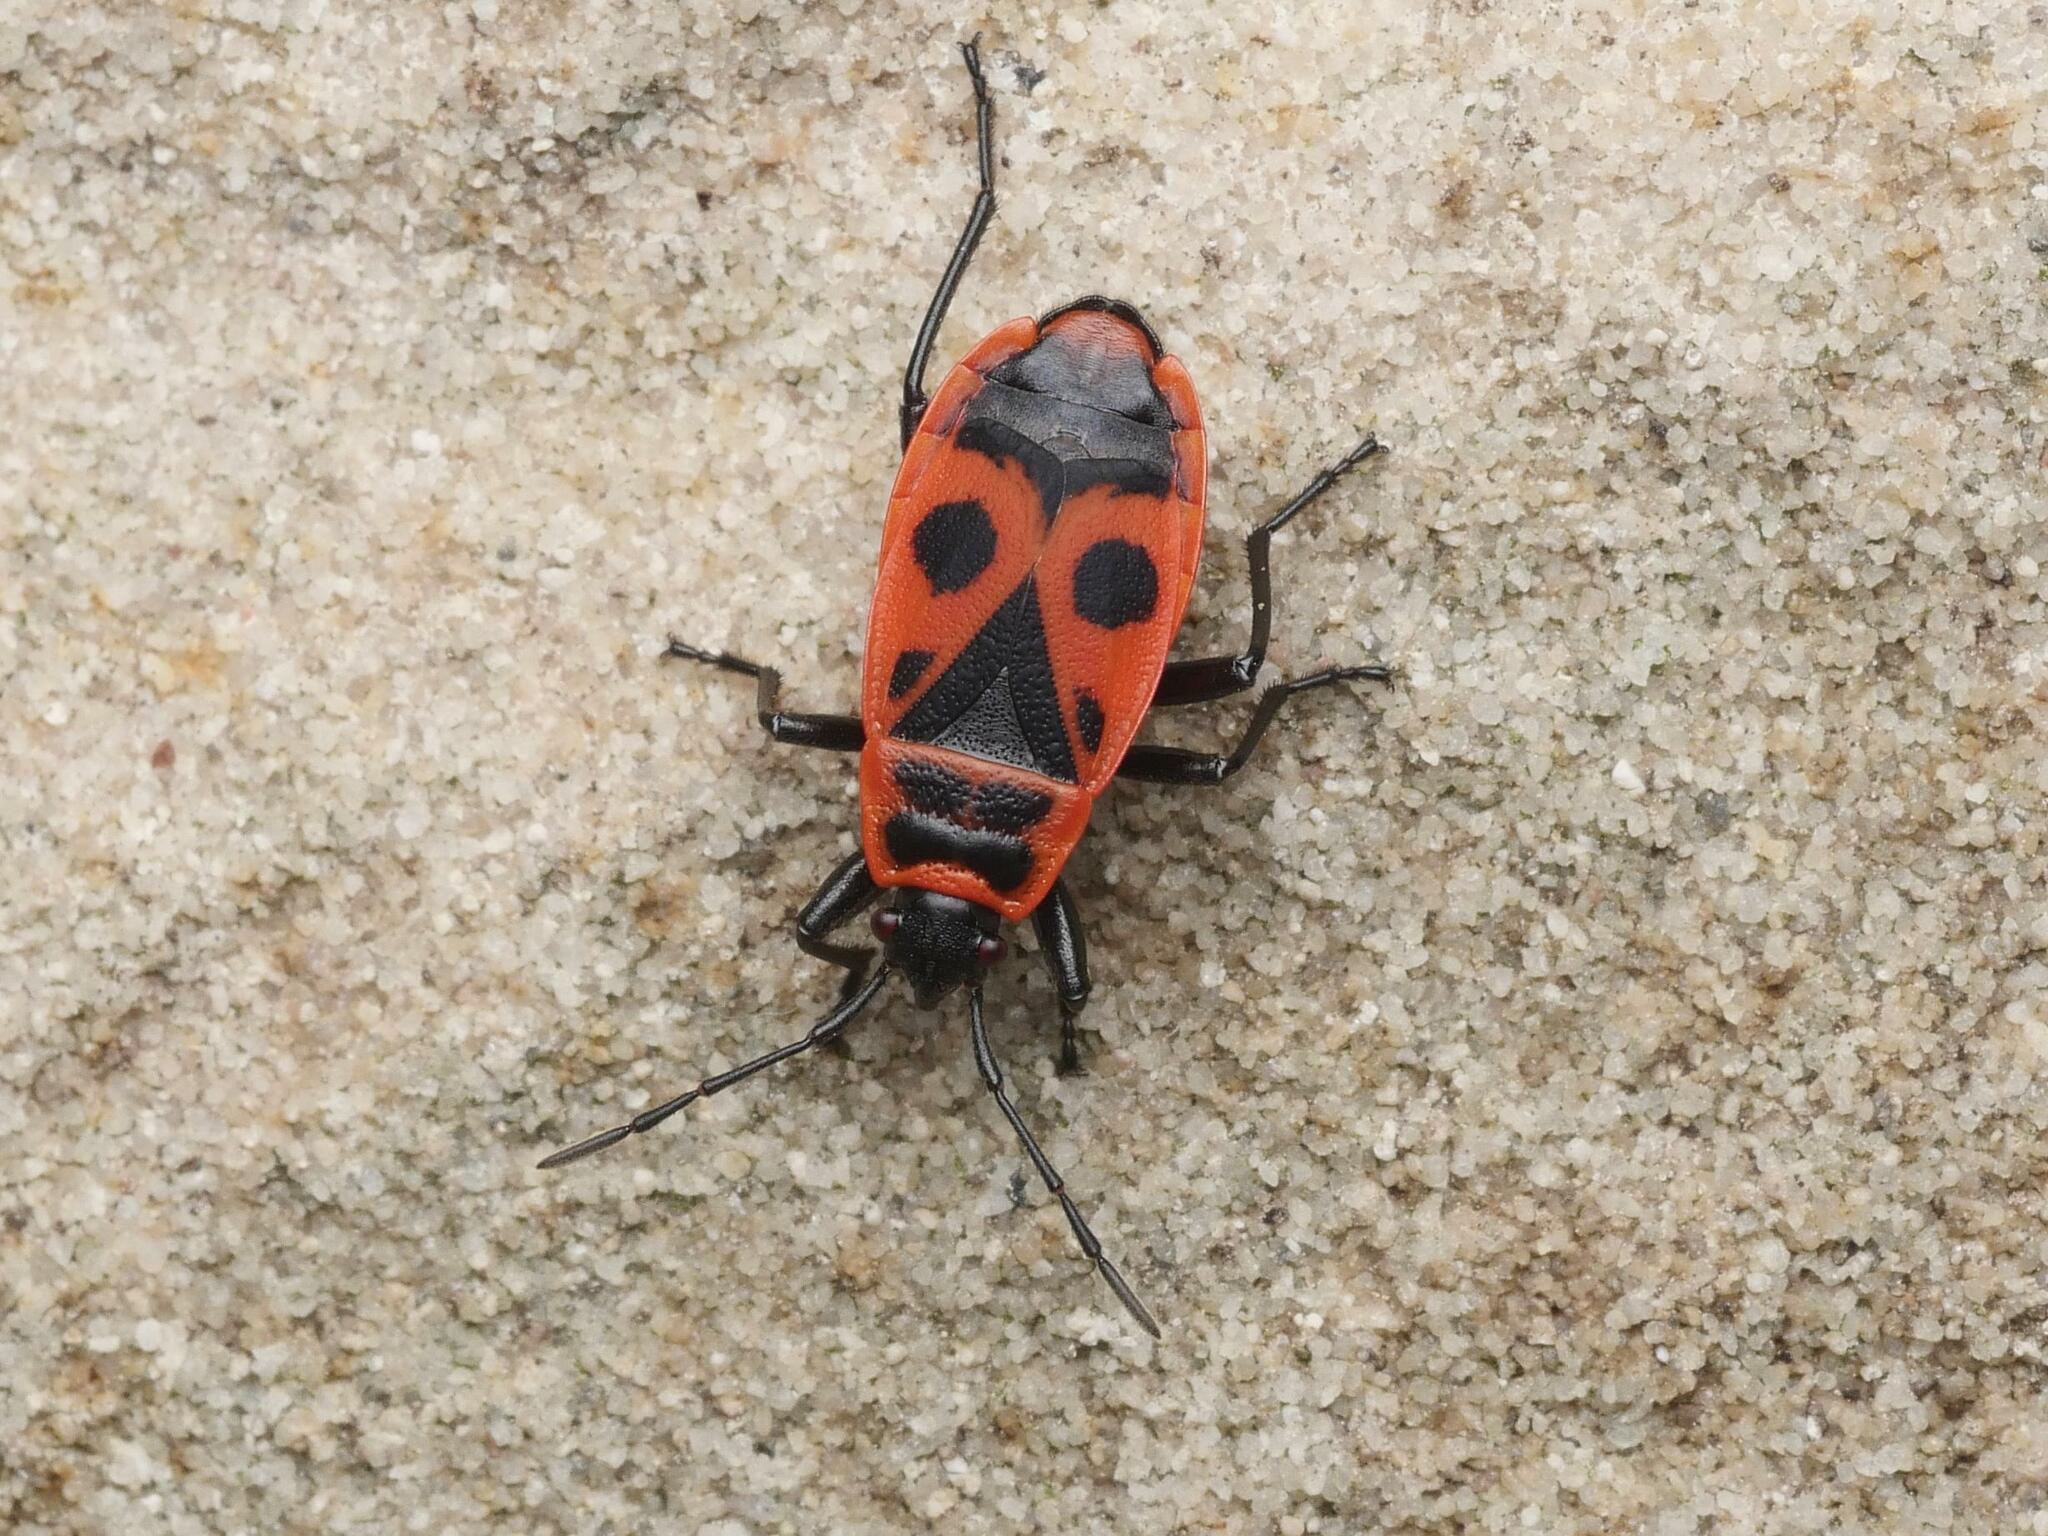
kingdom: Animalia
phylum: Arthropoda
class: Insecta
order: Hemiptera
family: Pyrrhocoridae
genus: Pyrrhocoris
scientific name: Pyrrhocoris apterus
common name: Firebug
